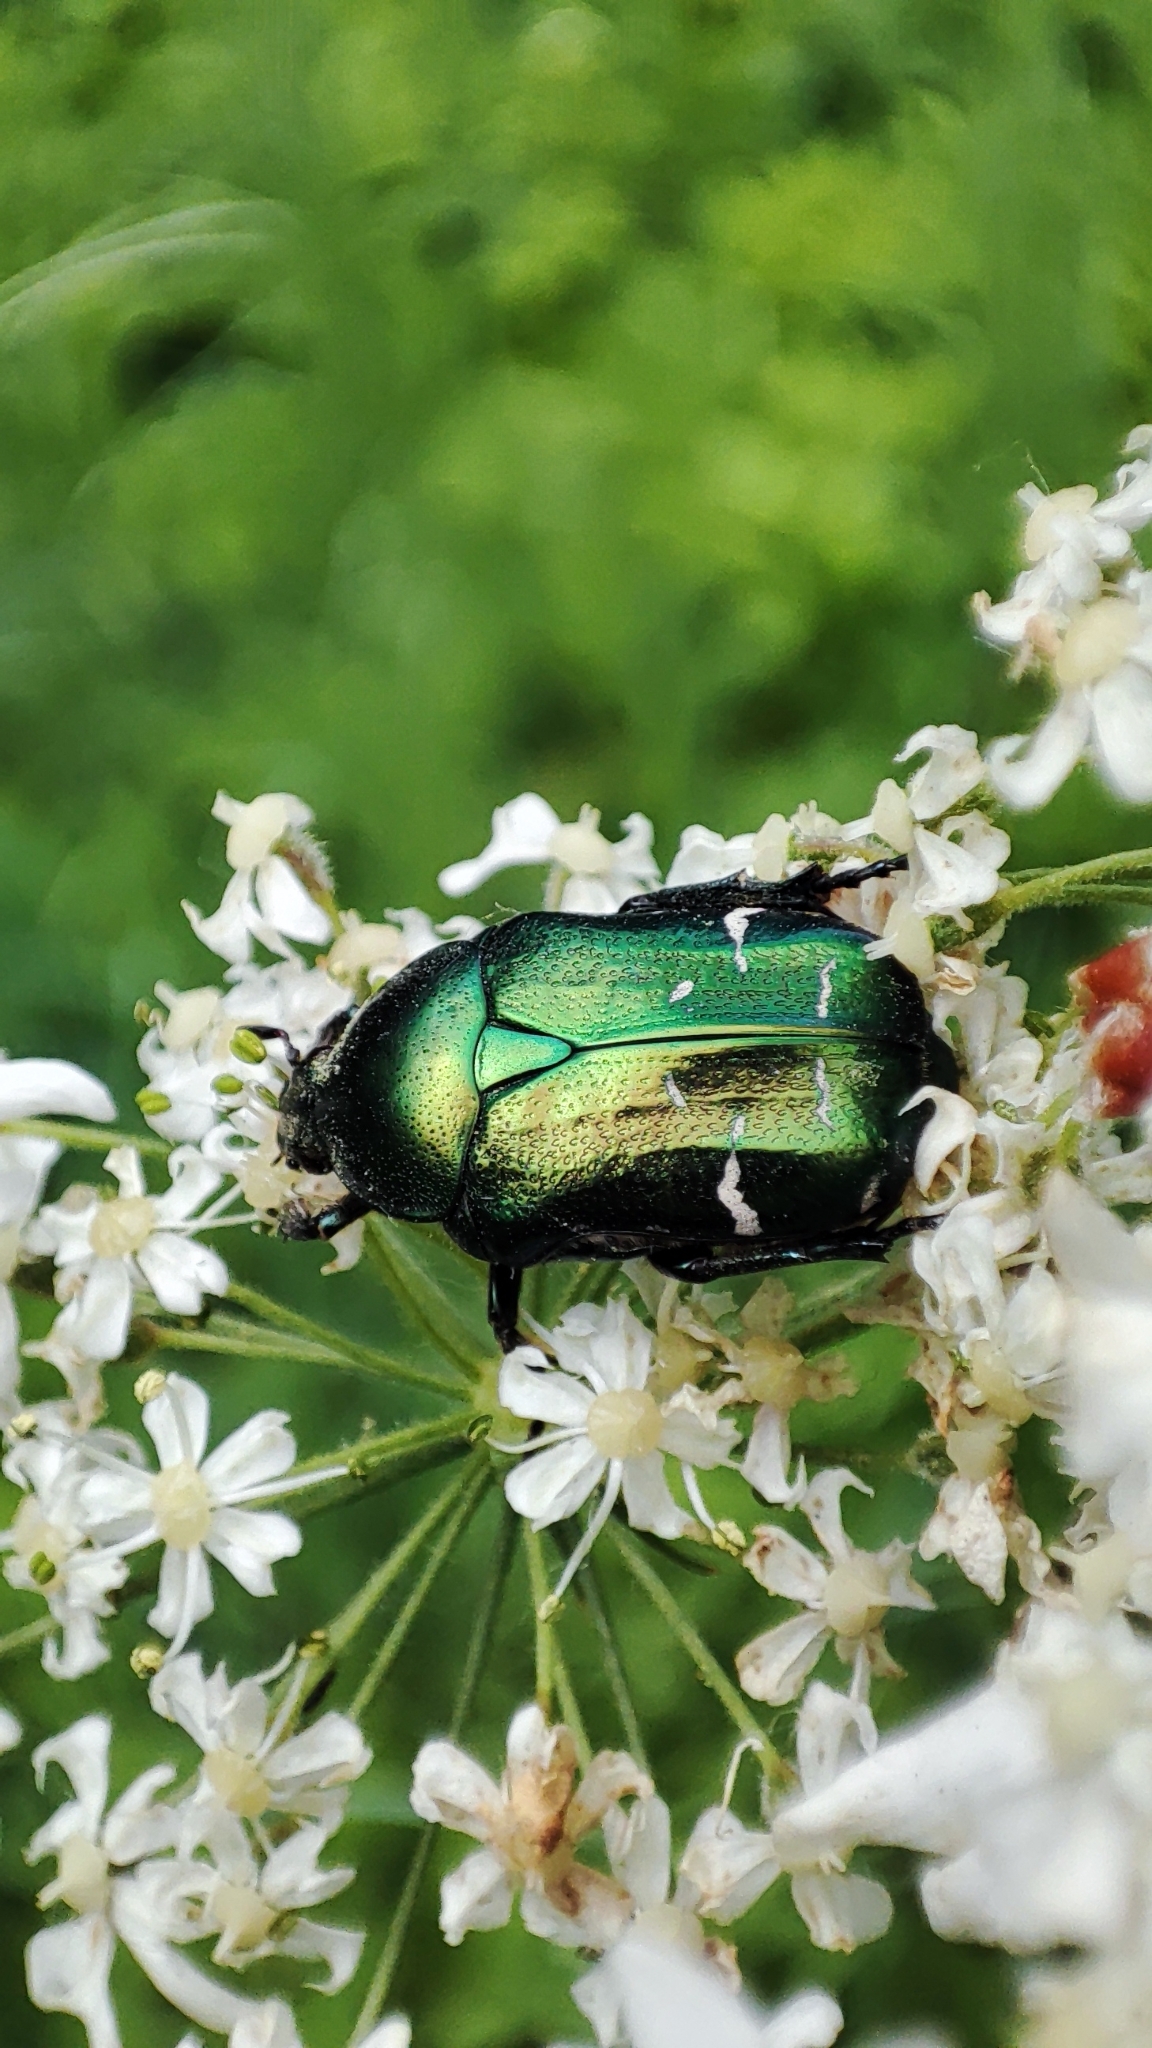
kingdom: Animalia
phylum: Arthropoda
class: Insecta
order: Coleoptera
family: Scarabaeidae
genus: Cetonia
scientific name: Cetonia aurata
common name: Rose chafer
